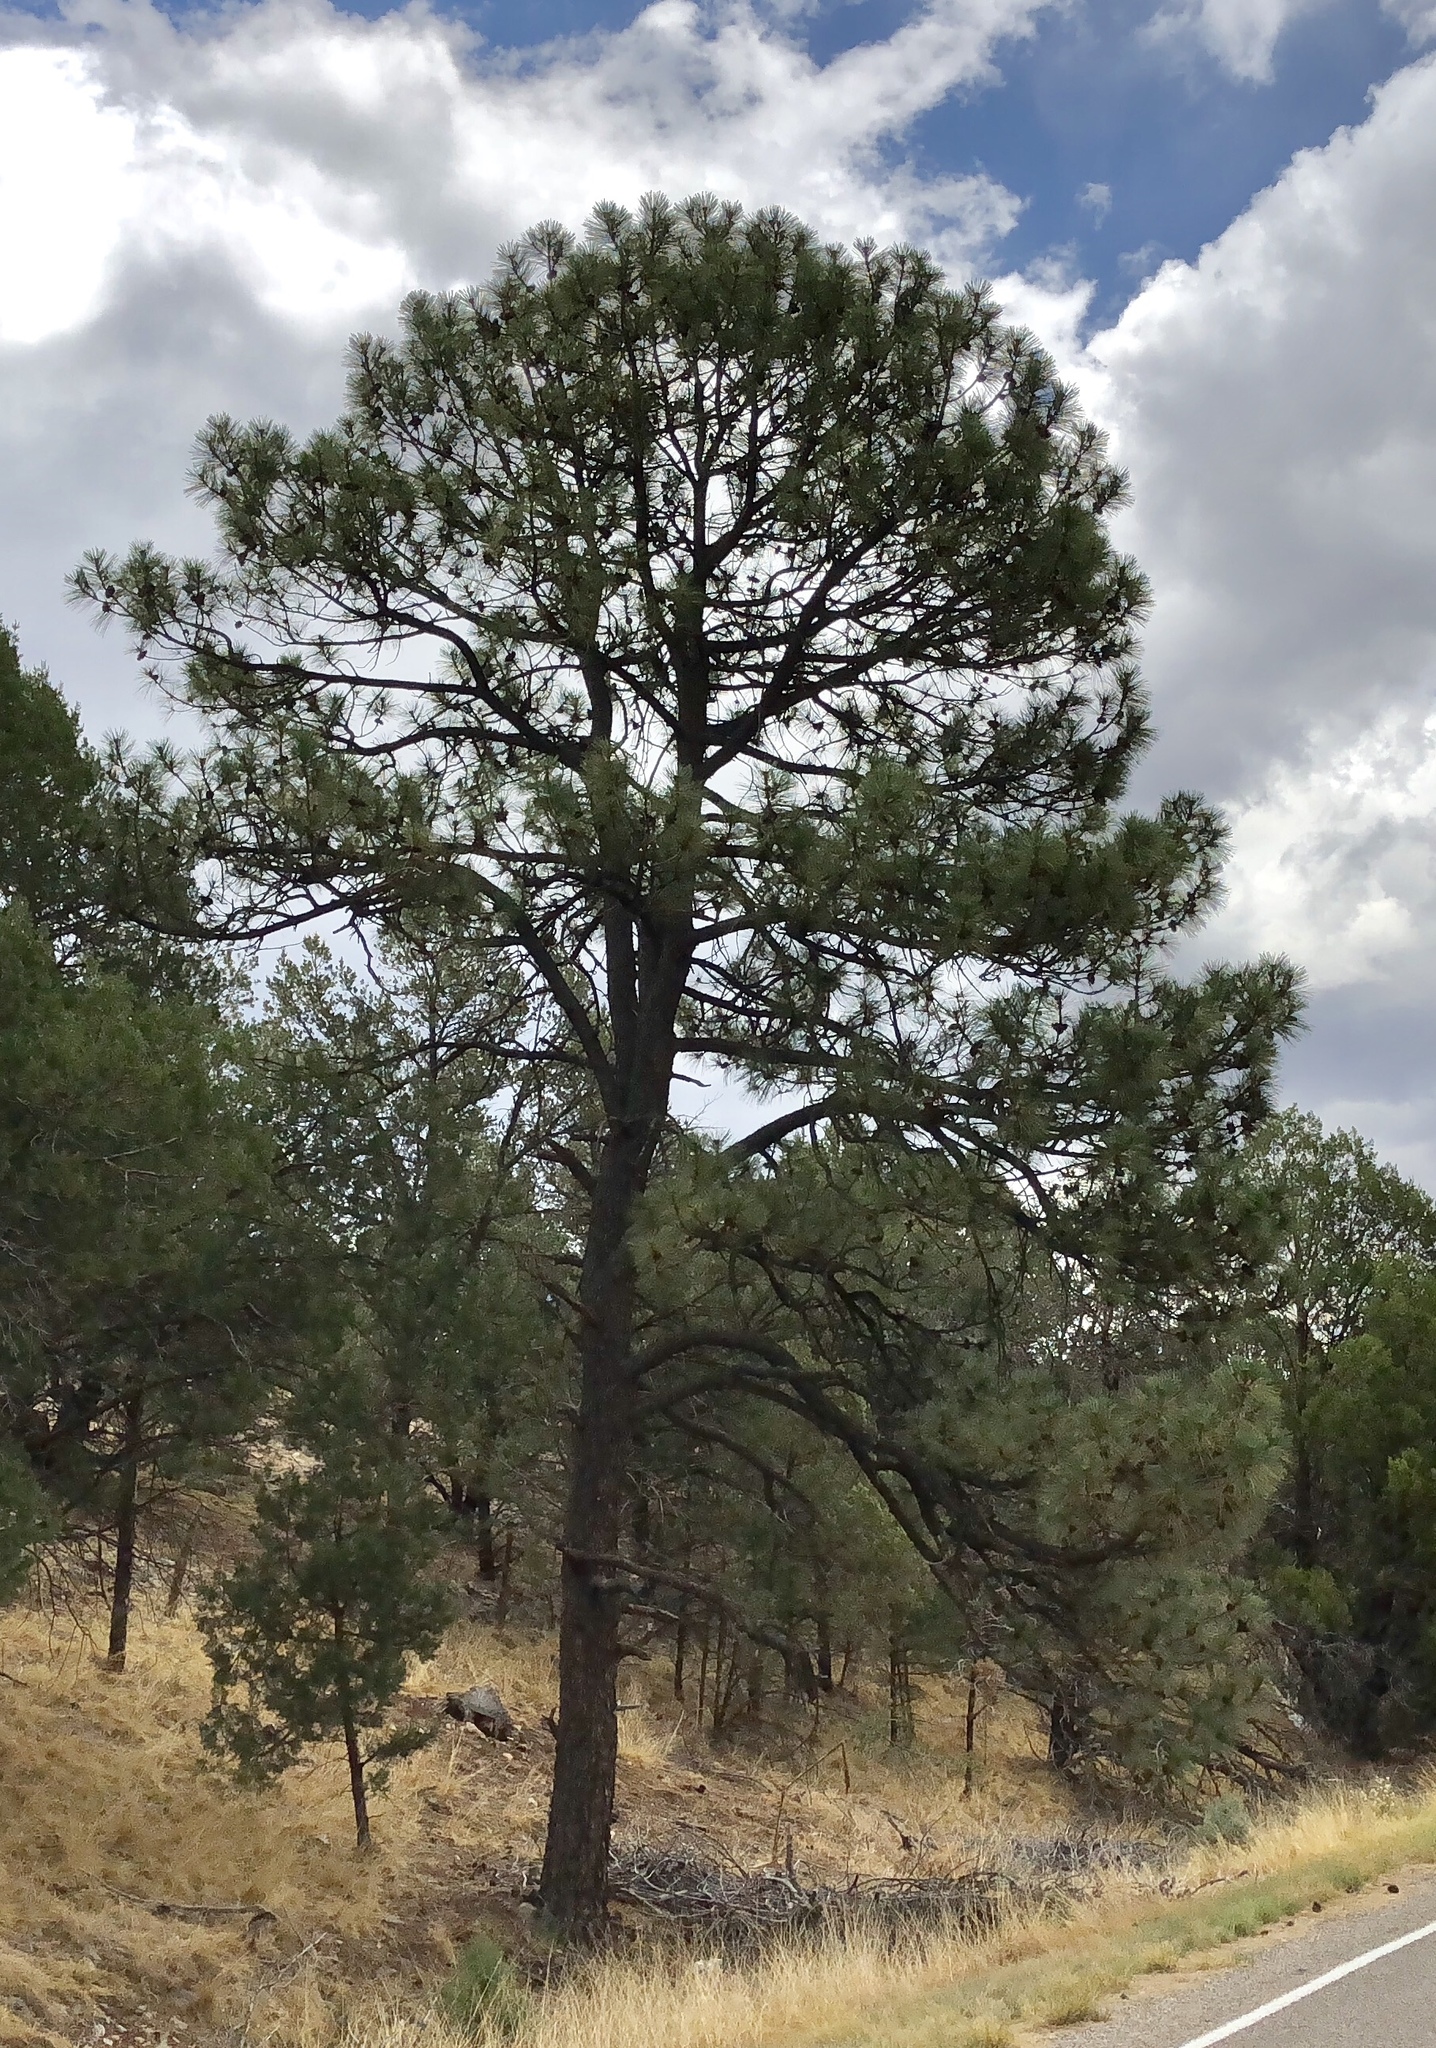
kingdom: Plantae
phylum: Tracheophyta
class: Pinopsida
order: Pinales
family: Pinaceae
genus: Pinus
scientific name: Pinus ponderosa
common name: Western yellow-pine
